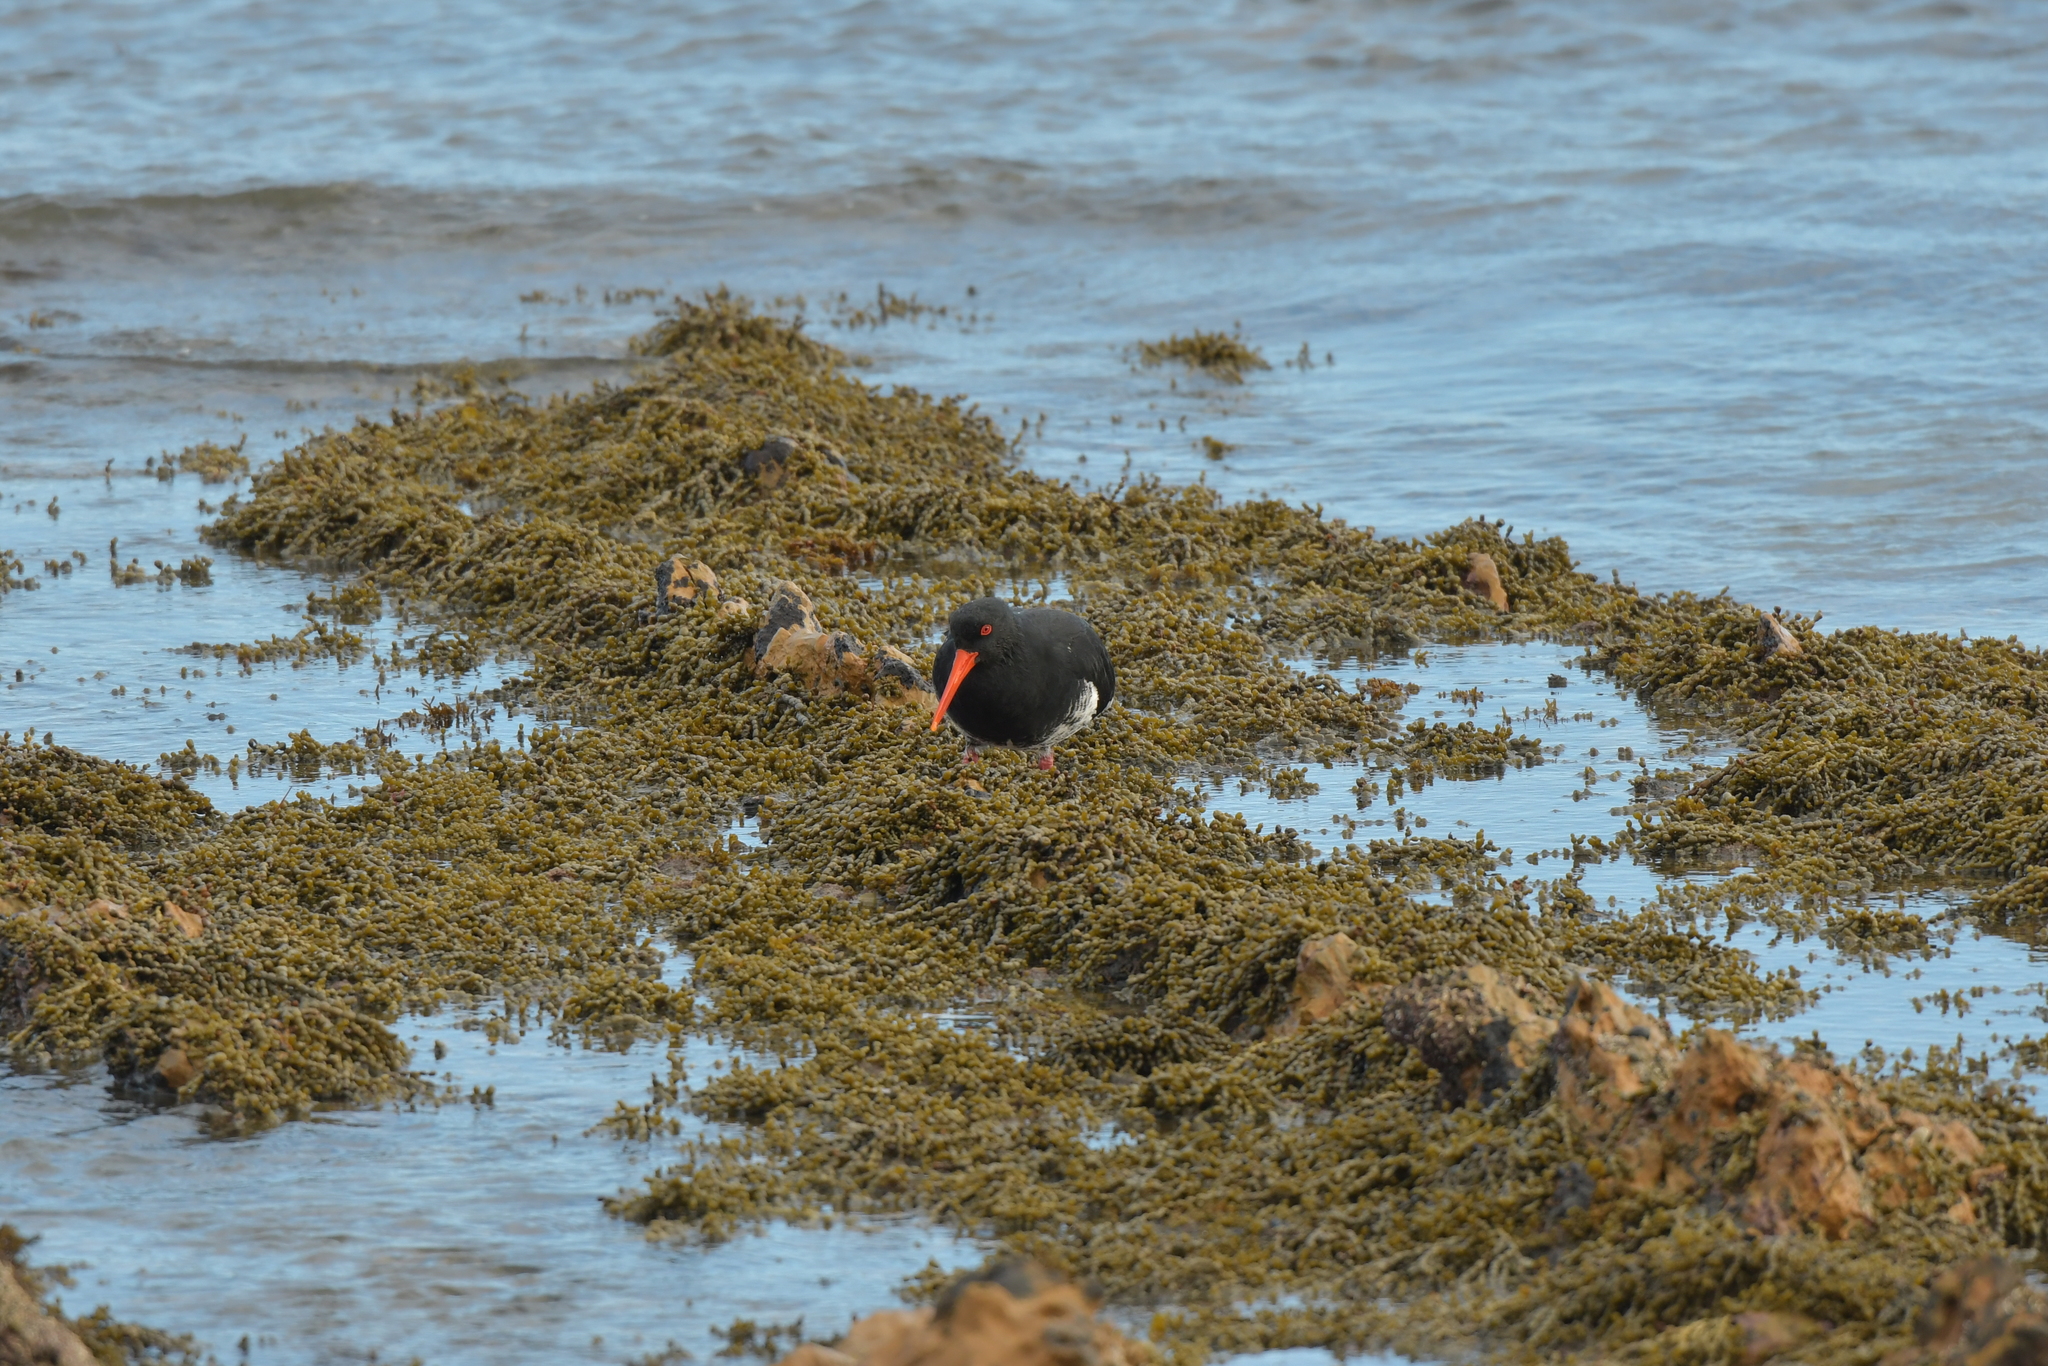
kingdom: Animalia
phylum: Chordata
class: Aves
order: Charadriiformes
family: Haematopodidae
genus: Haematopus
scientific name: Haematopus unicolor
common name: Variable oystercatcher
